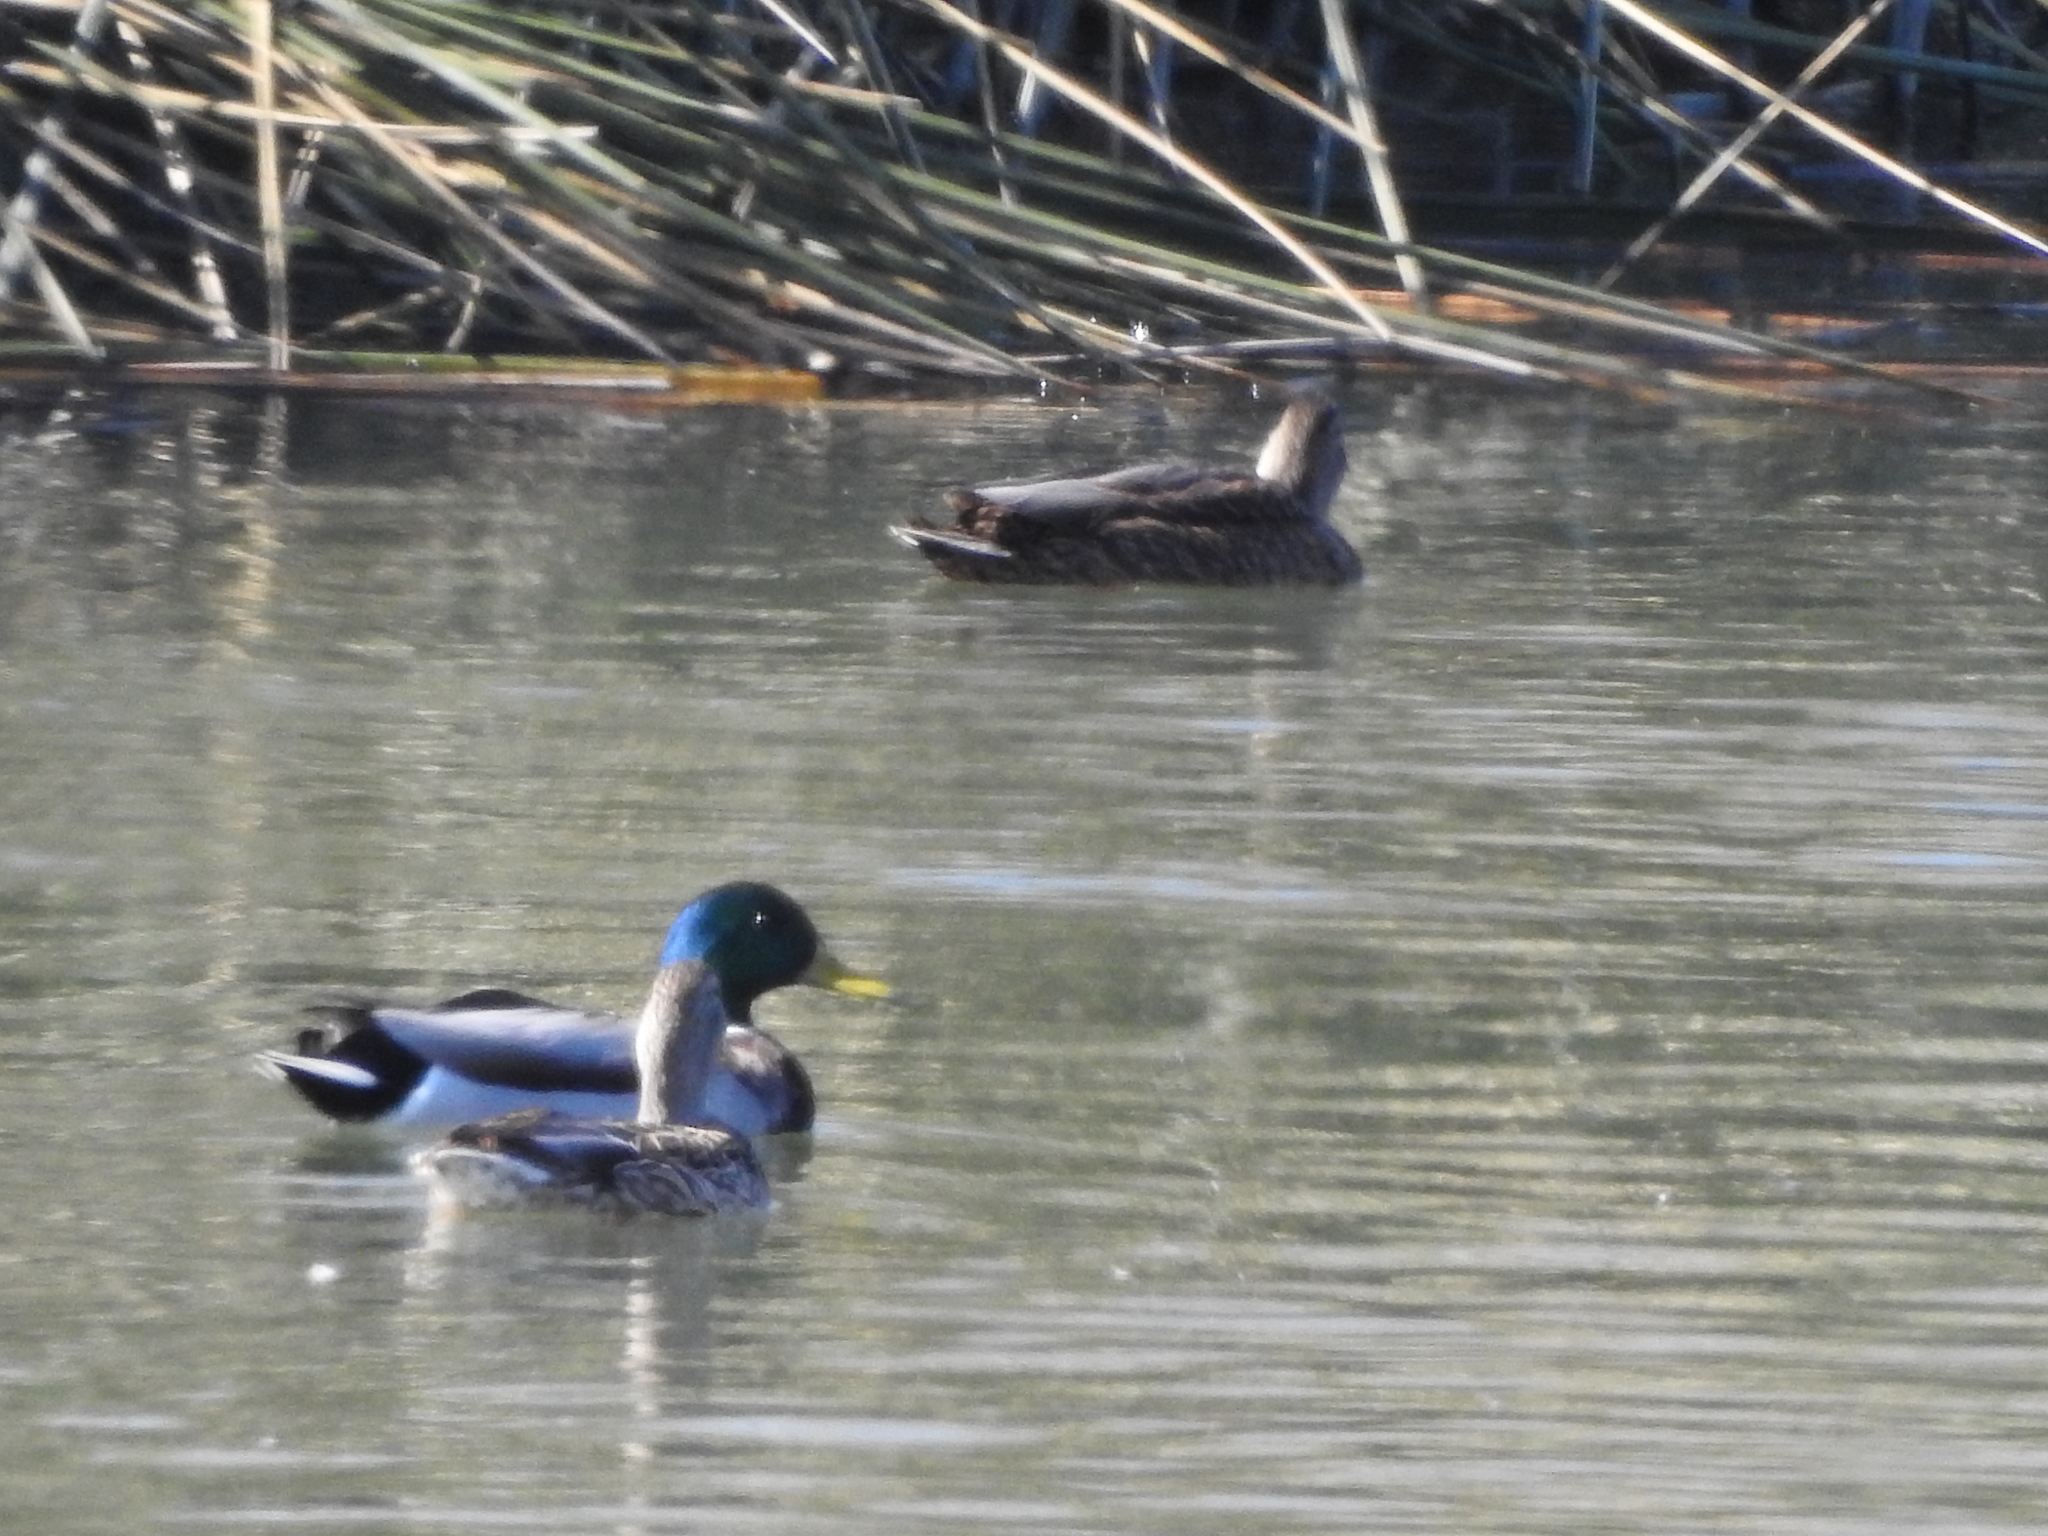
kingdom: Animalia
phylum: Chordata
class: Aves
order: Anseriformes
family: Anatidae
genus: Anas
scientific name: Anas platyrhynchos
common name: Mallard
